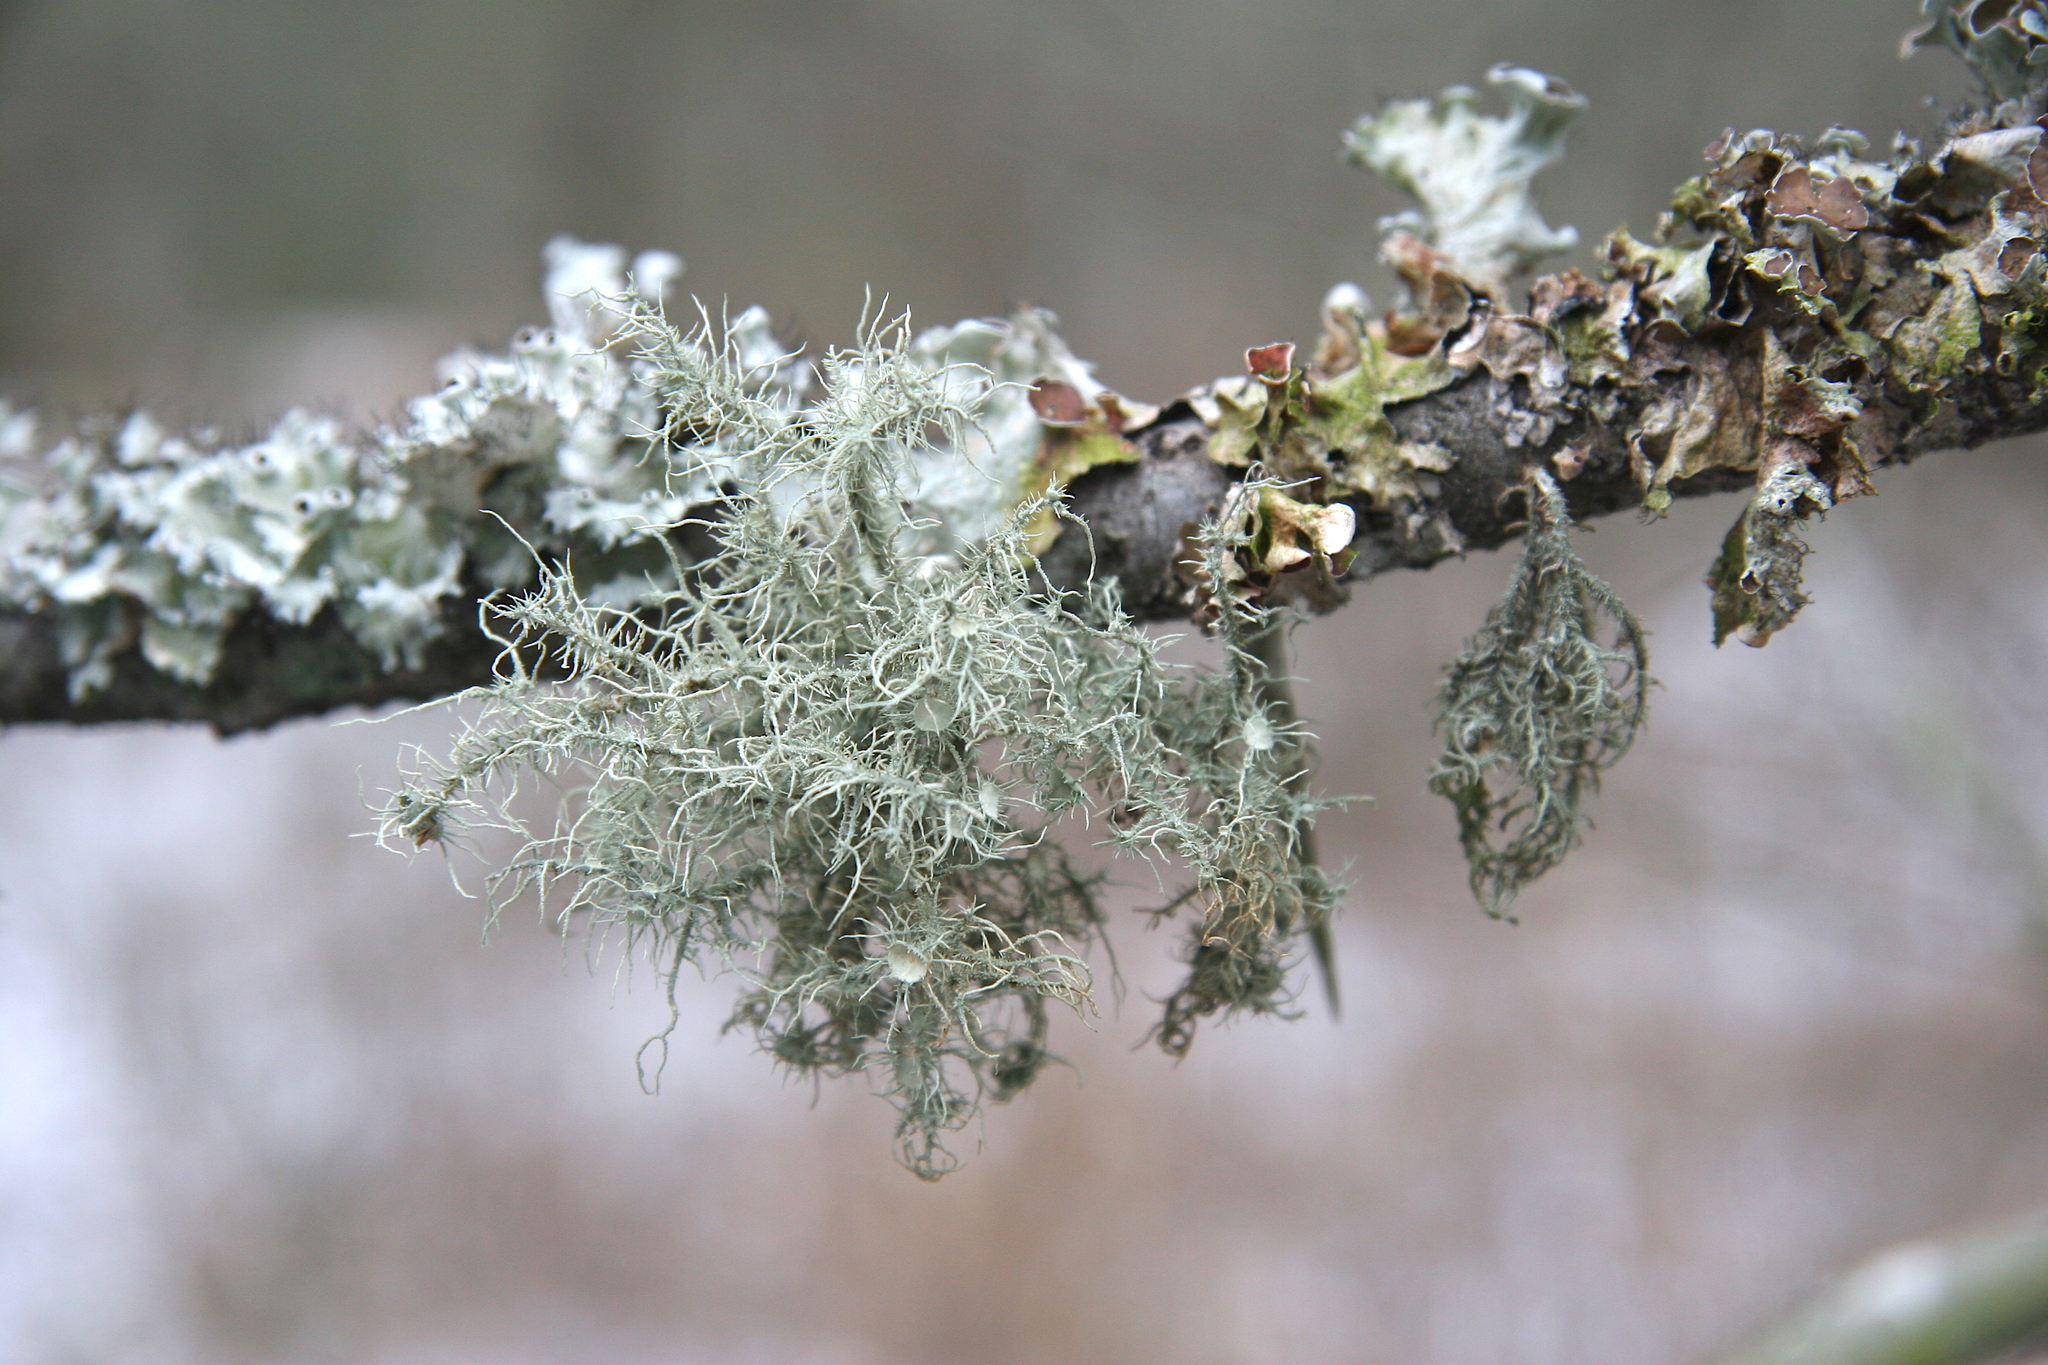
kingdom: Fungi
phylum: Ascomycota
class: Lecanoromycetes
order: Lecanorales
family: Parmeliaceae
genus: Usnea
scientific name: Usnea strigosa
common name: Bushy beard lichen
